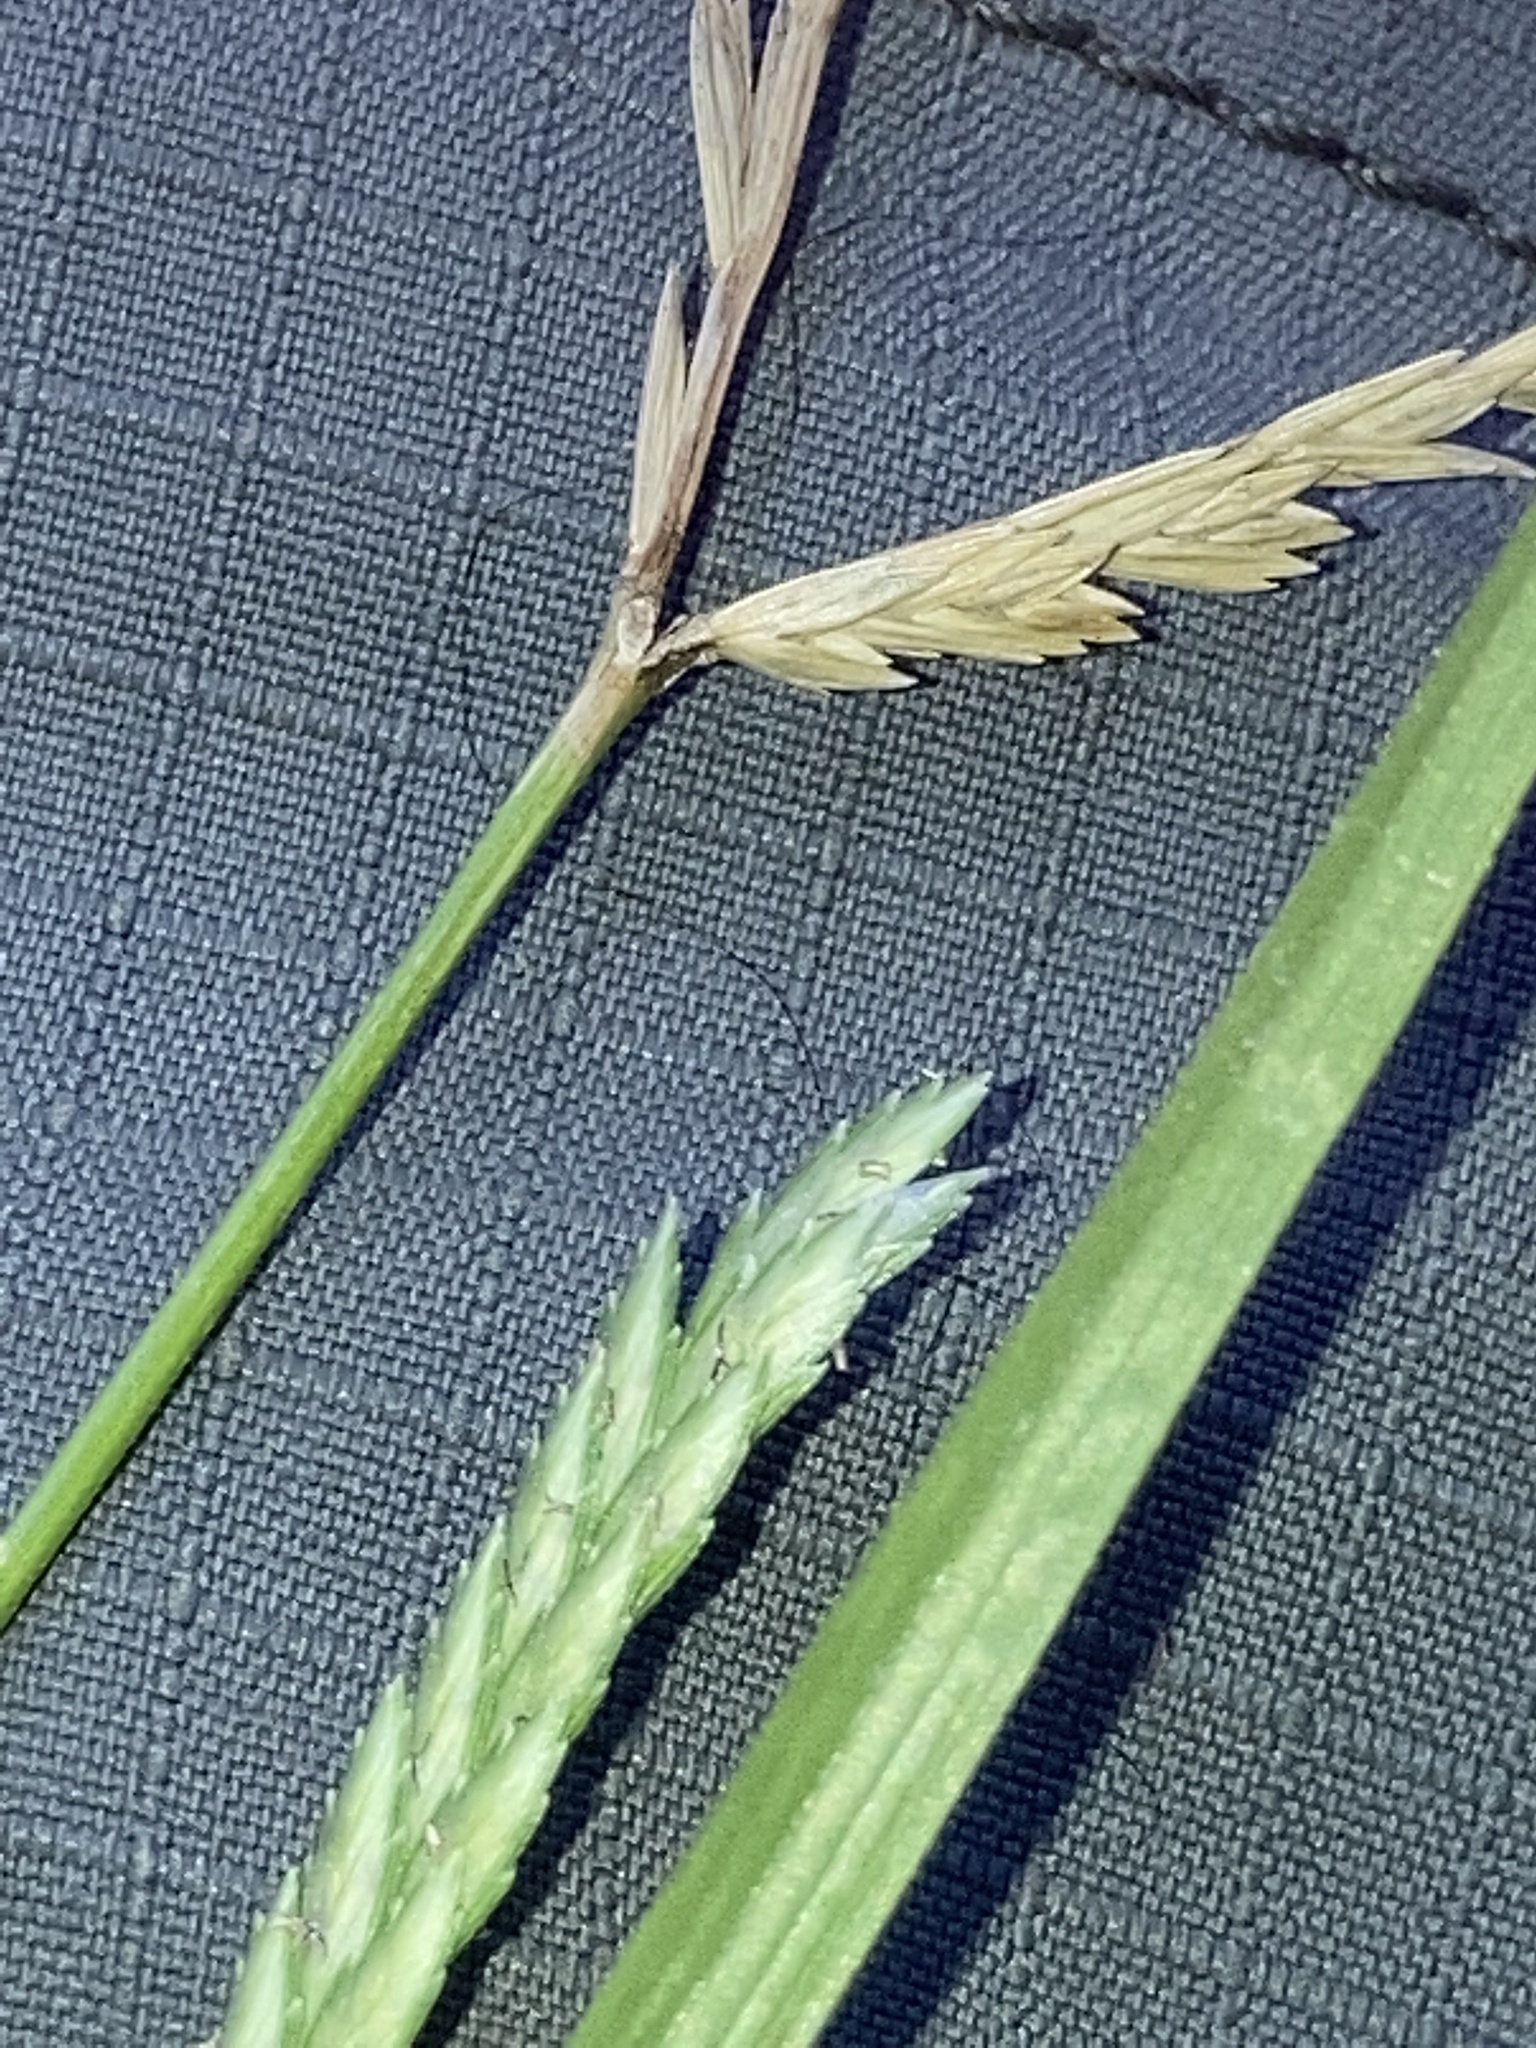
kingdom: Plantae
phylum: Tracheophyta
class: Liliopsida
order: Poales
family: Poaceae
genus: Eleusine
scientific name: Eleusine indica
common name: Yard-grass
